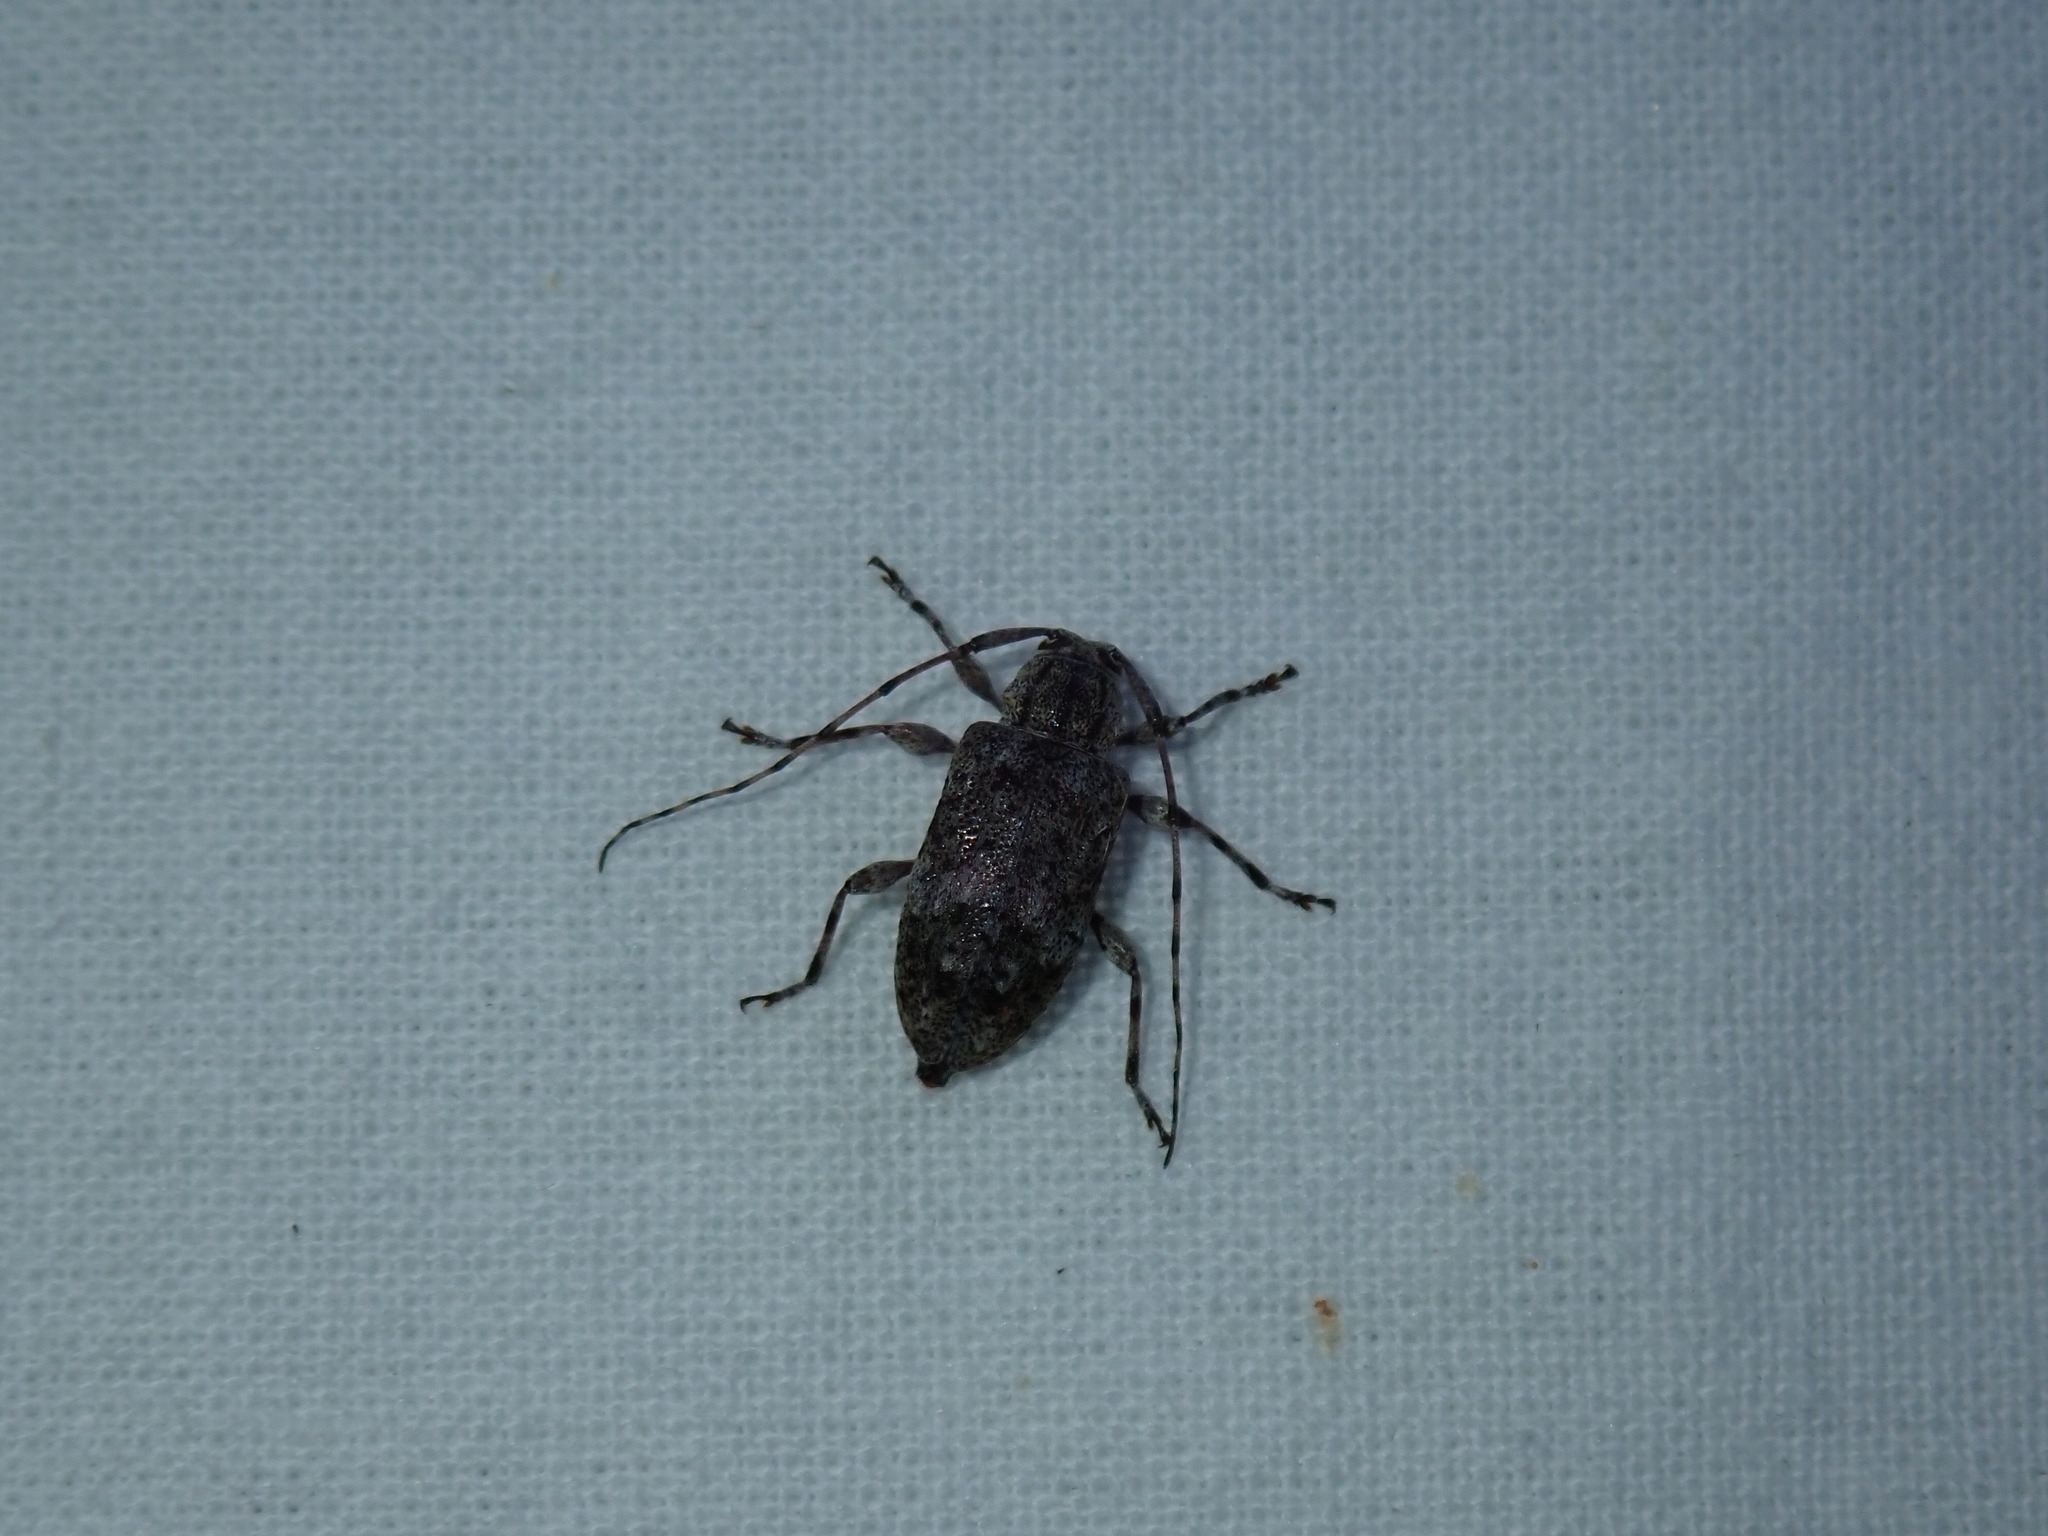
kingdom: Animalia
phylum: Arthropoda
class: Insecta
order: Coleoptera
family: Cerambycidae
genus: Astylopsis
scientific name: Astylopsis sexguttata
